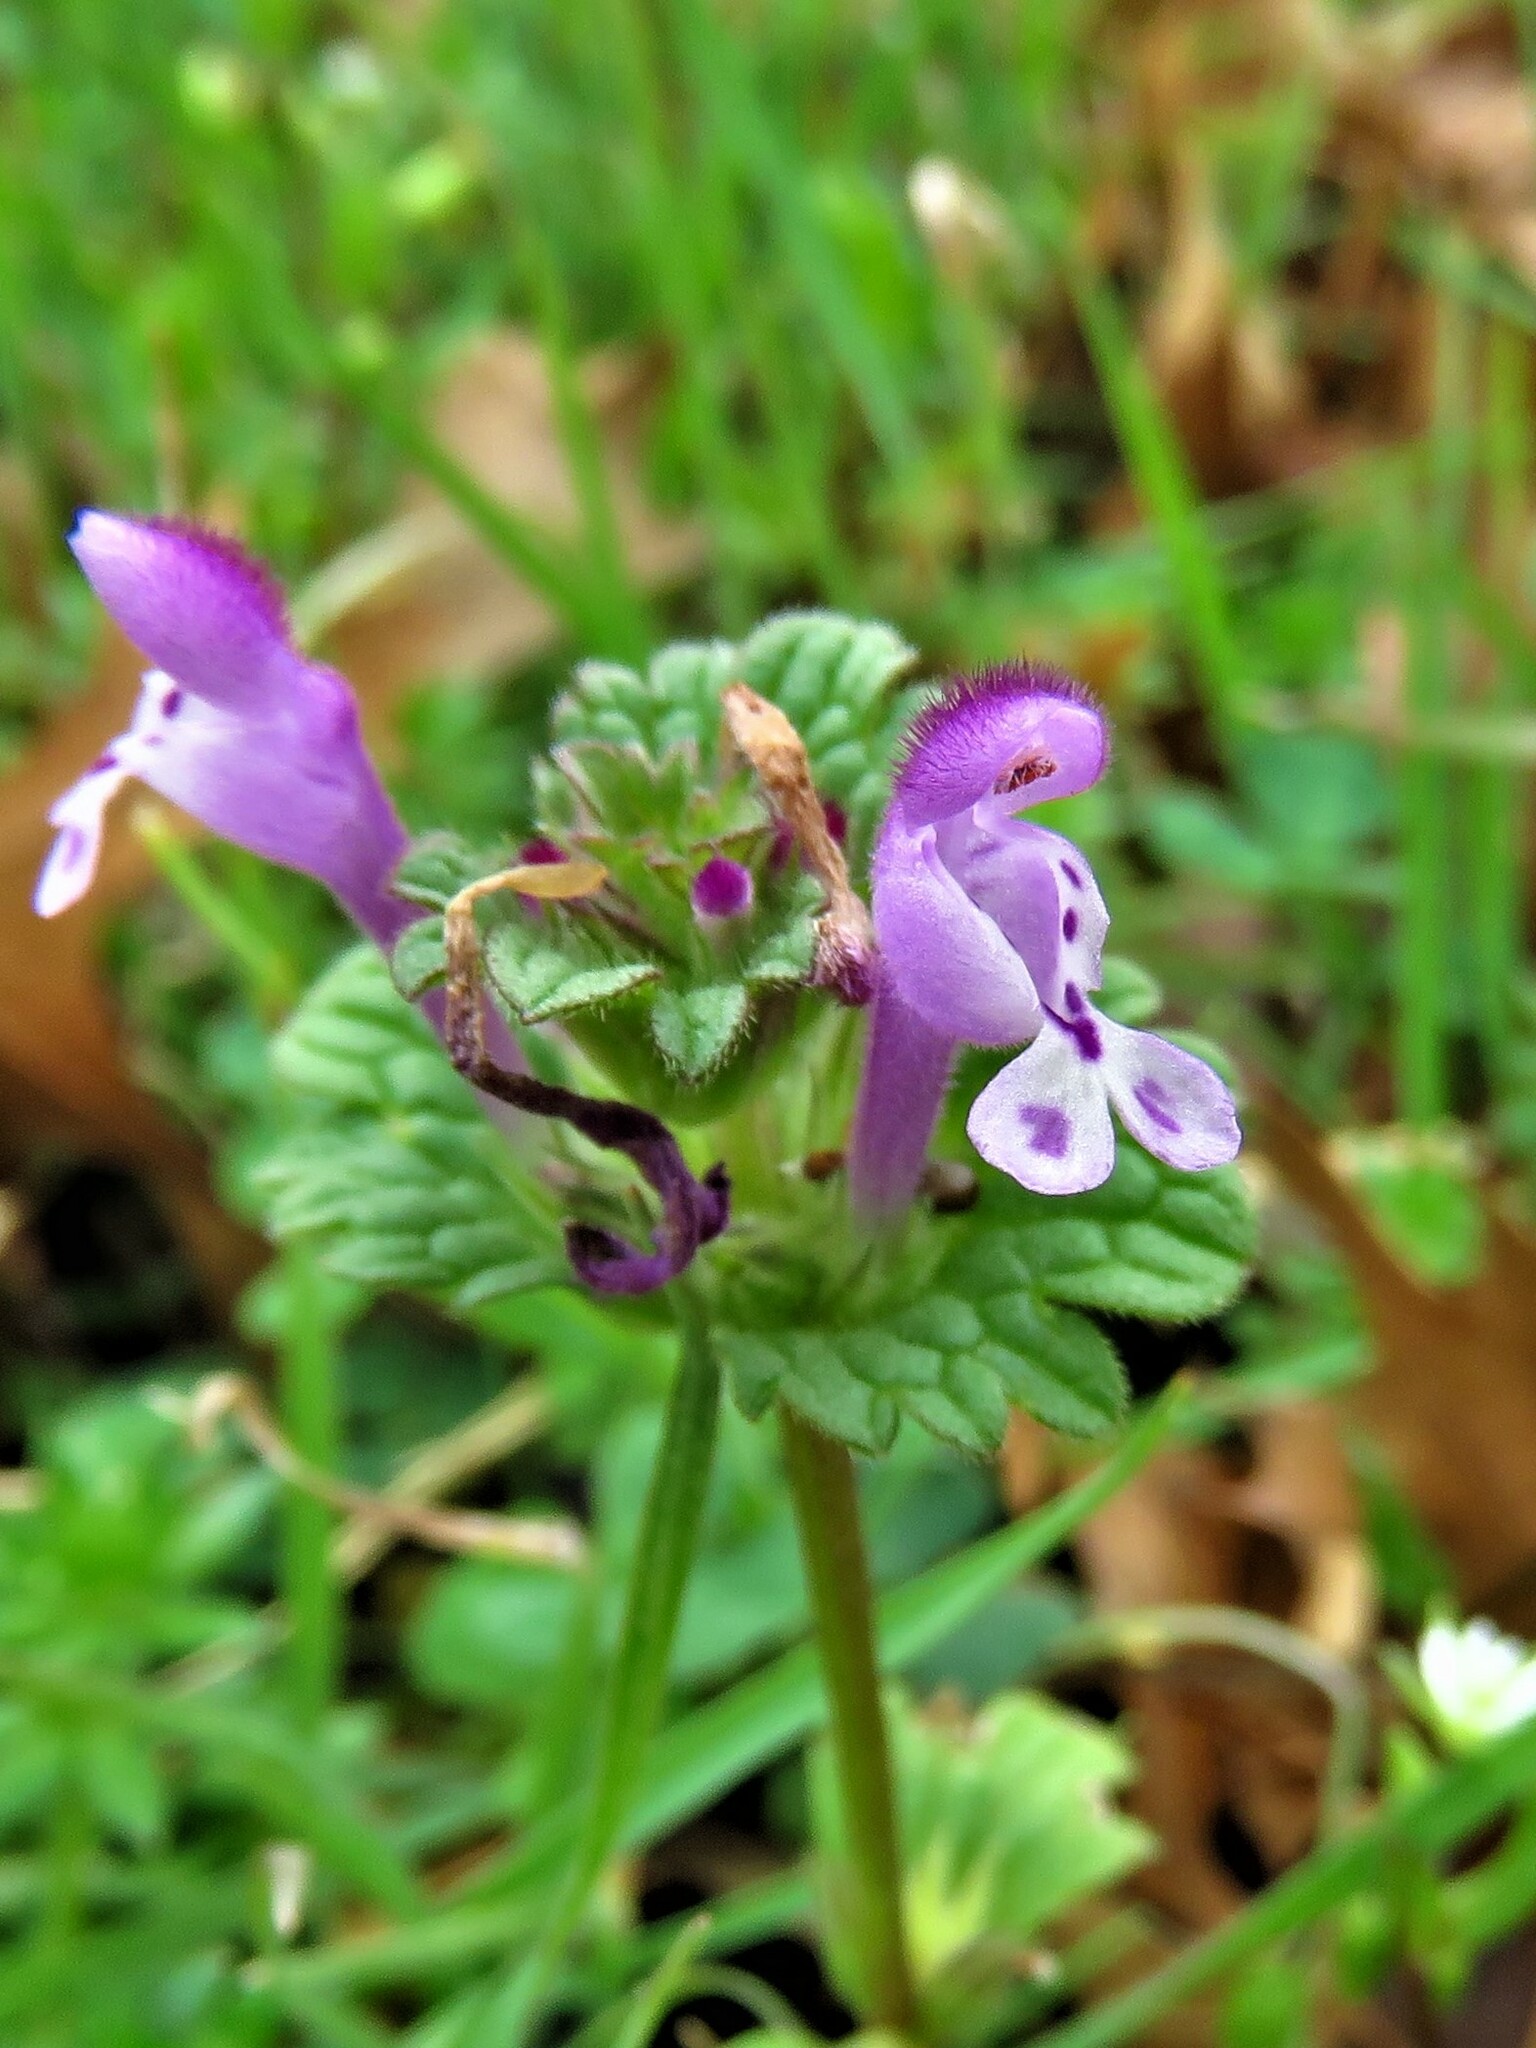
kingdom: Plantae
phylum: Tracheophyta
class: Magnoliopsida
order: Lamiales
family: Lamiaceae
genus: Lamium
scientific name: Lamium amplexicaule
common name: Henbit dead-nettle
